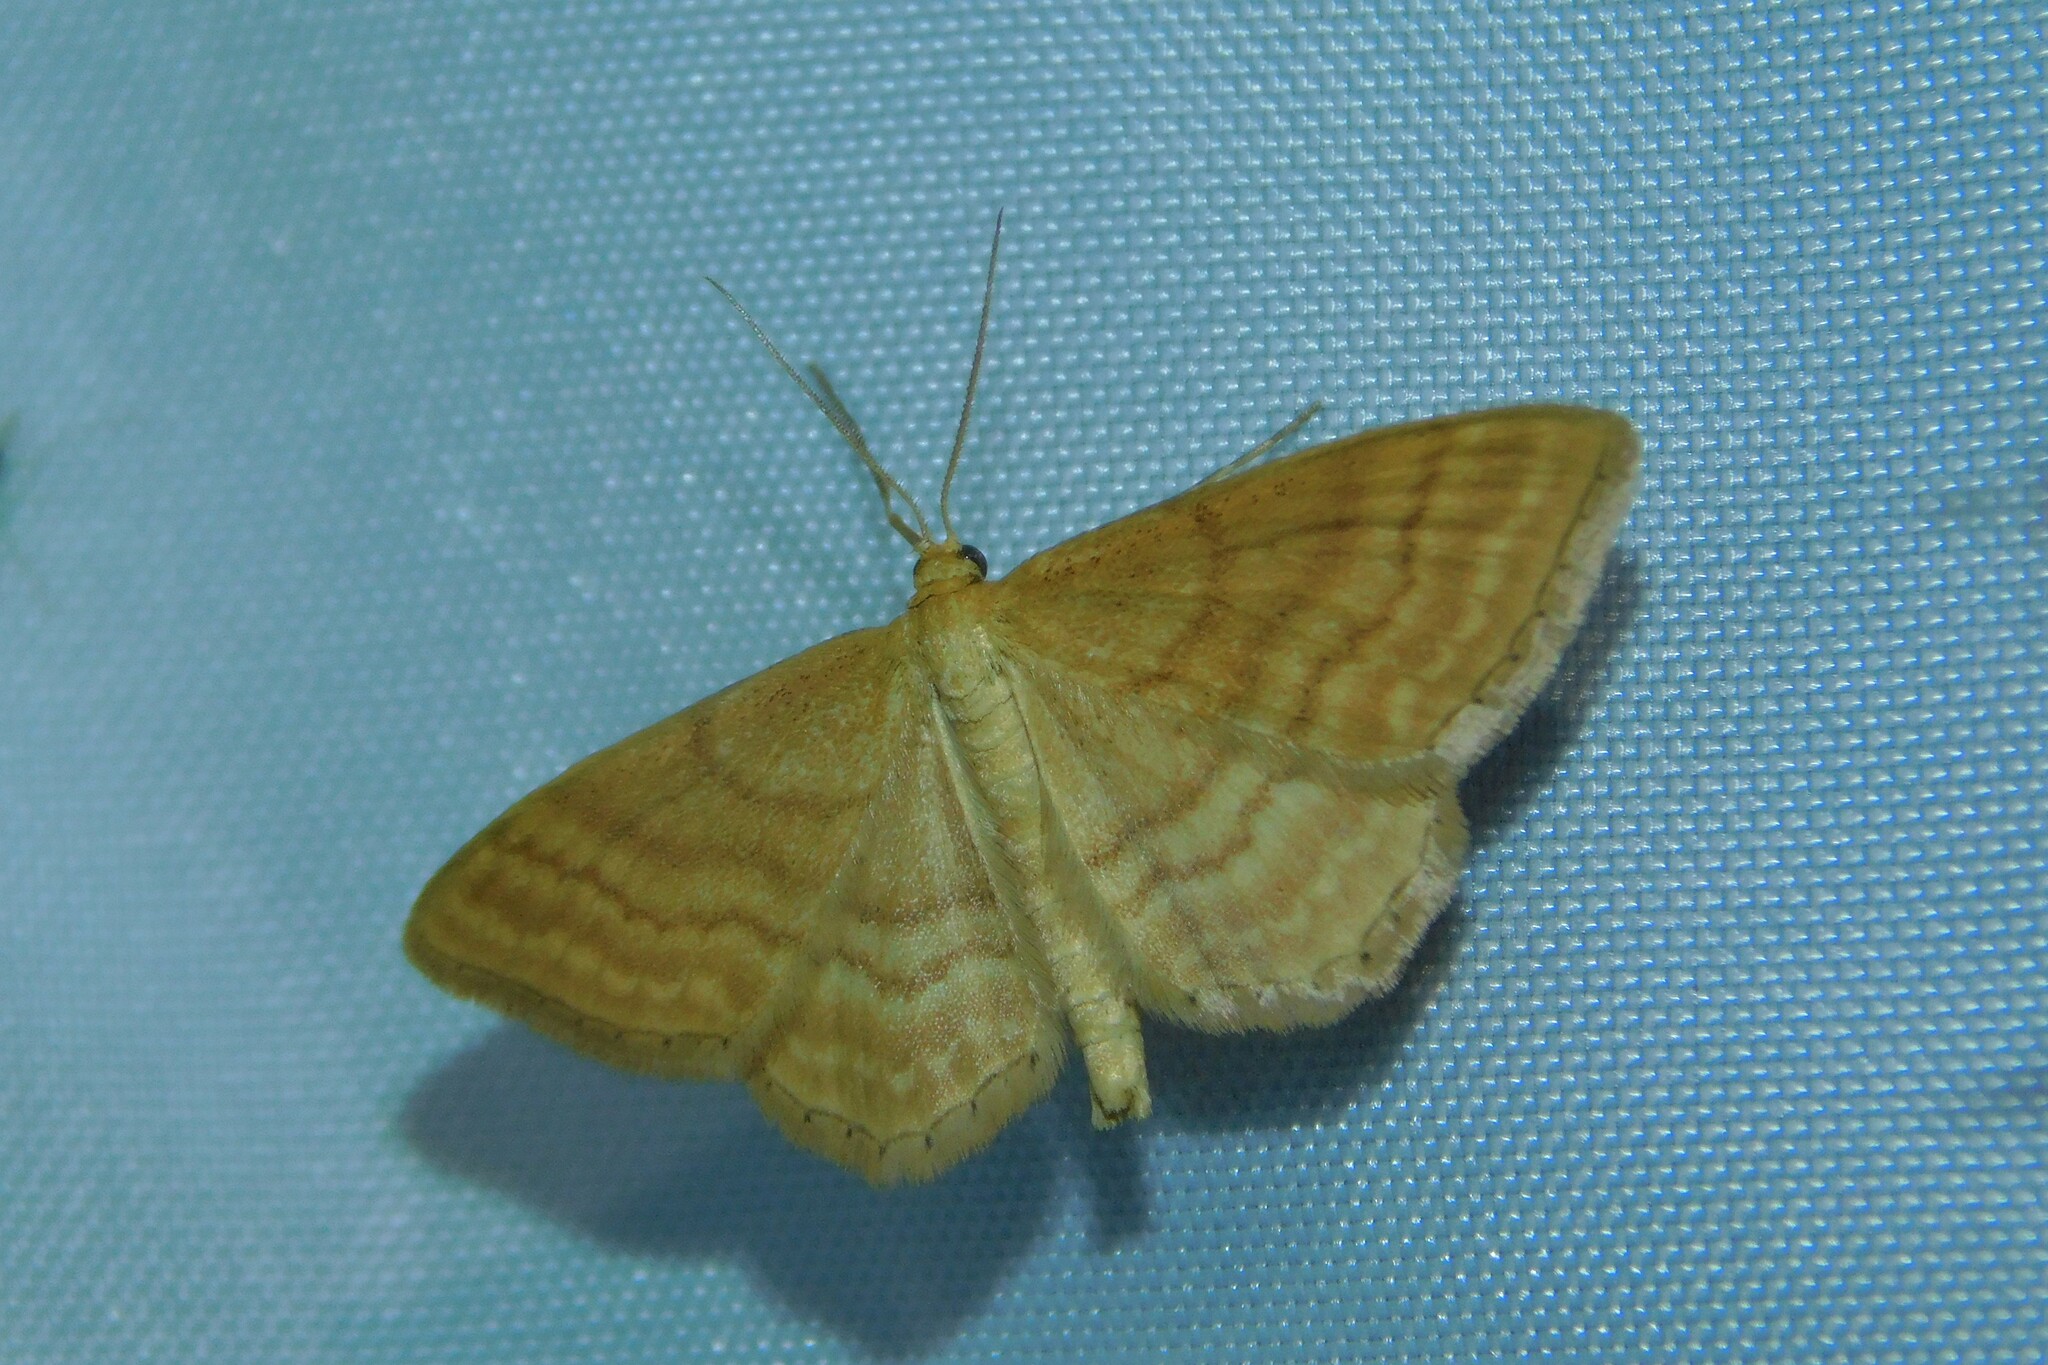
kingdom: Animalia
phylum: Arthropoda
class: Insecta
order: Lepidoptera
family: Geometridae
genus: Idaea
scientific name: Idaea ochrata
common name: Bright wave
